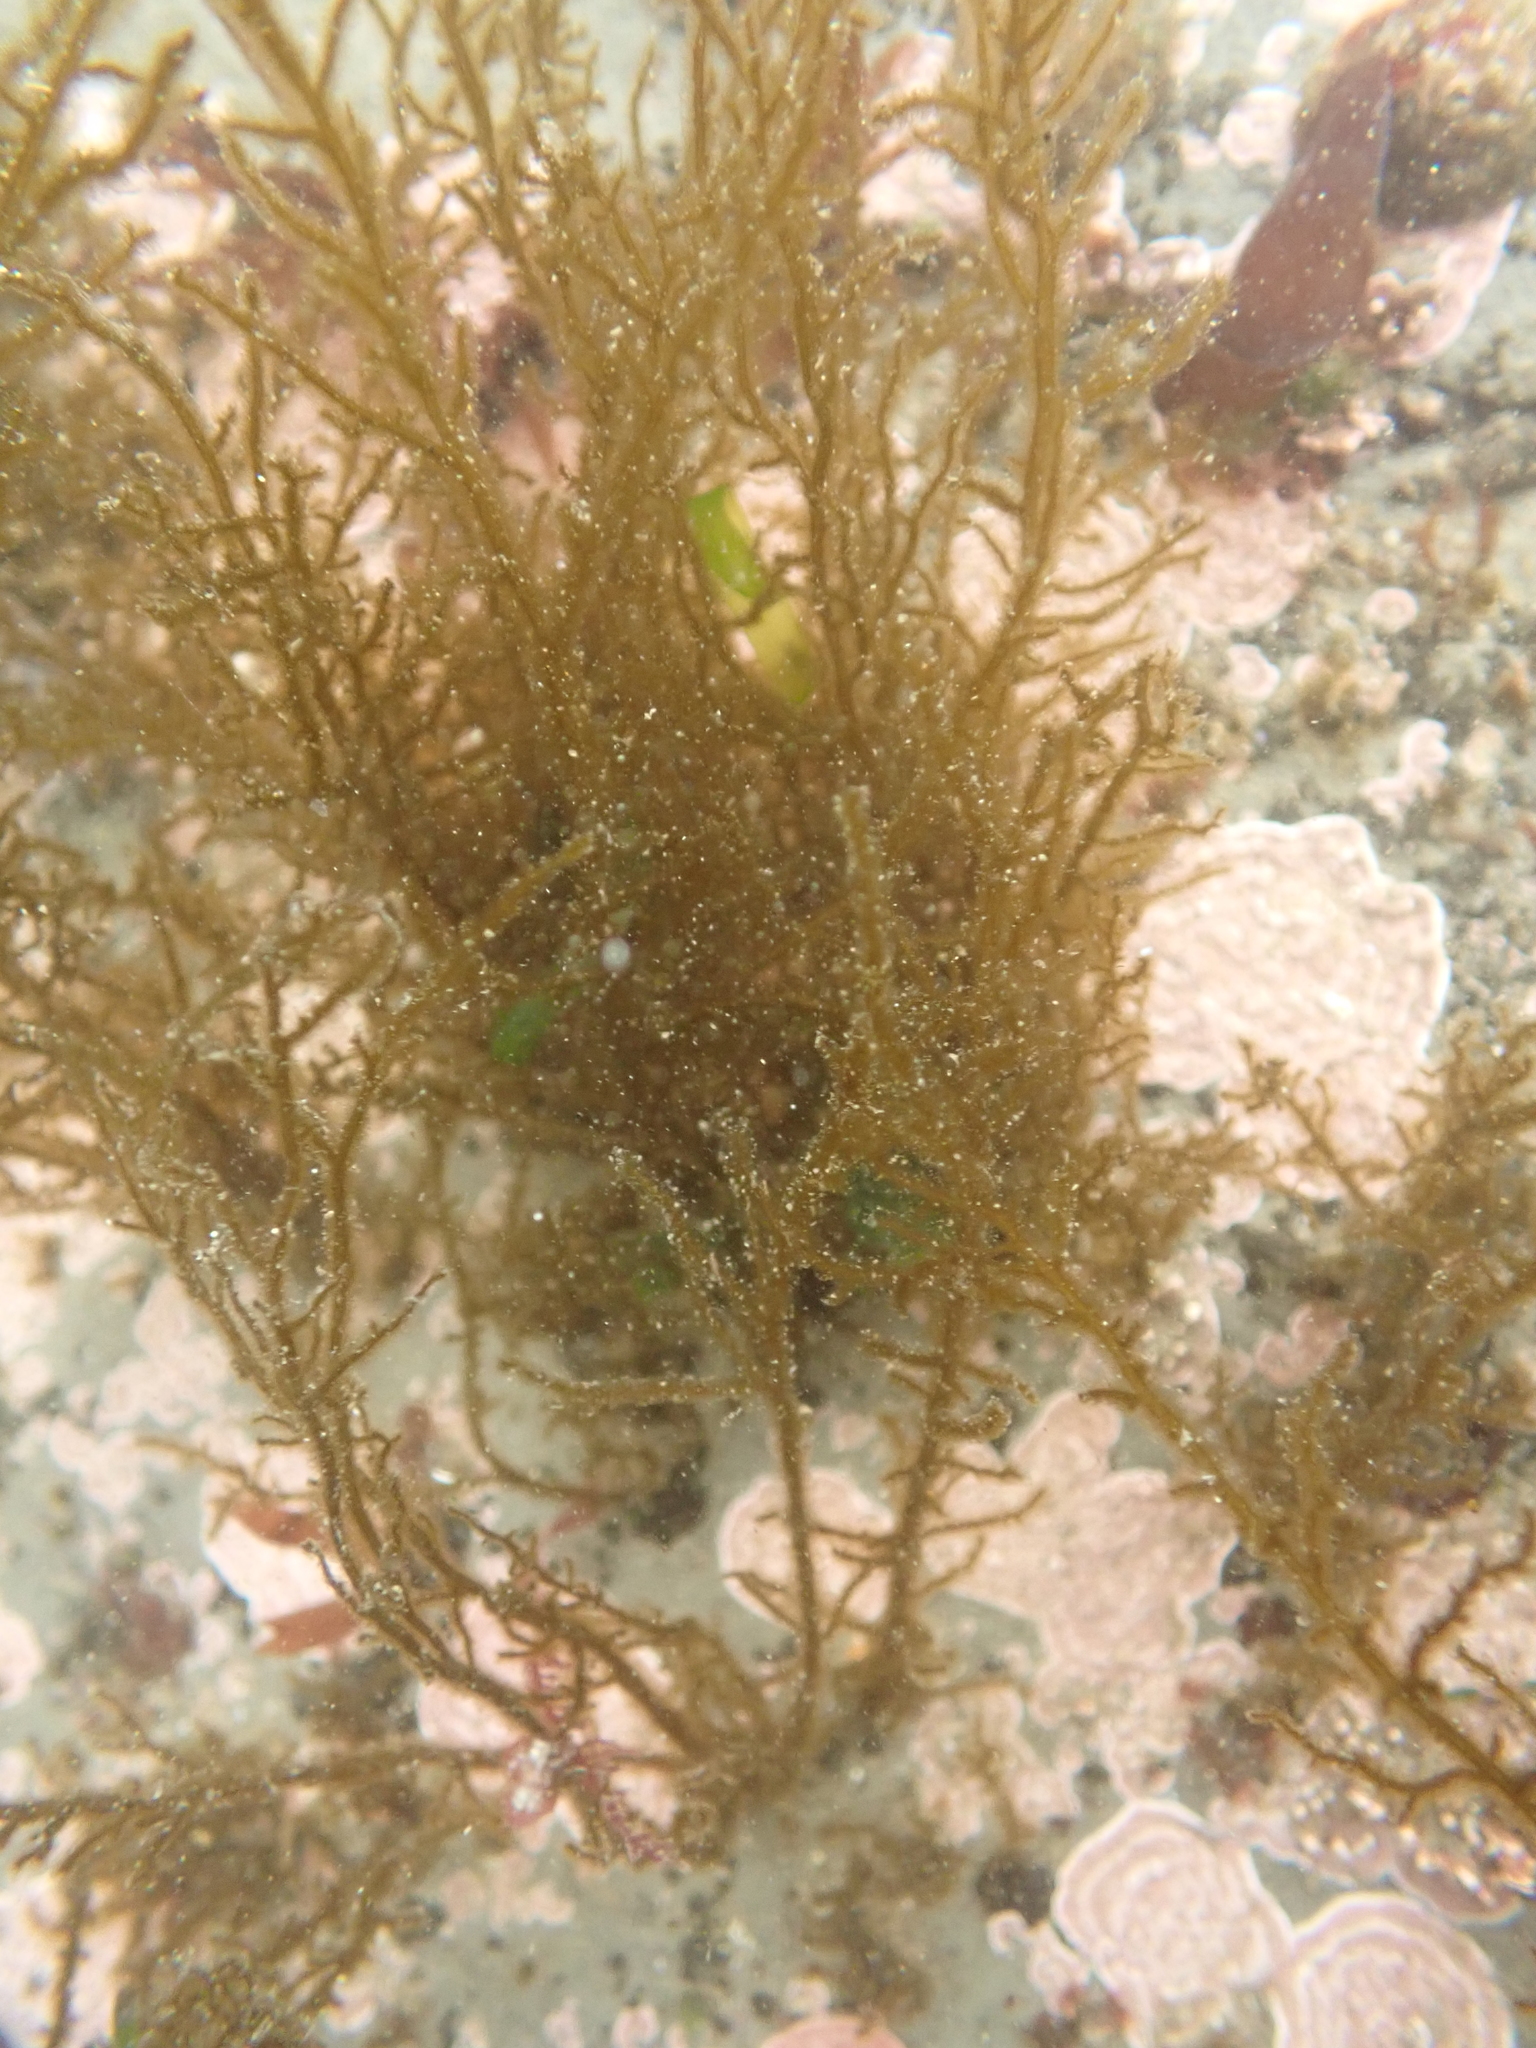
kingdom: Chromista
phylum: Ochrophyta
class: Phaeophyceae
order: Ectocarpales
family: Chordariaceae
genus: Haplogloia
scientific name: Haplogloia andersonii
